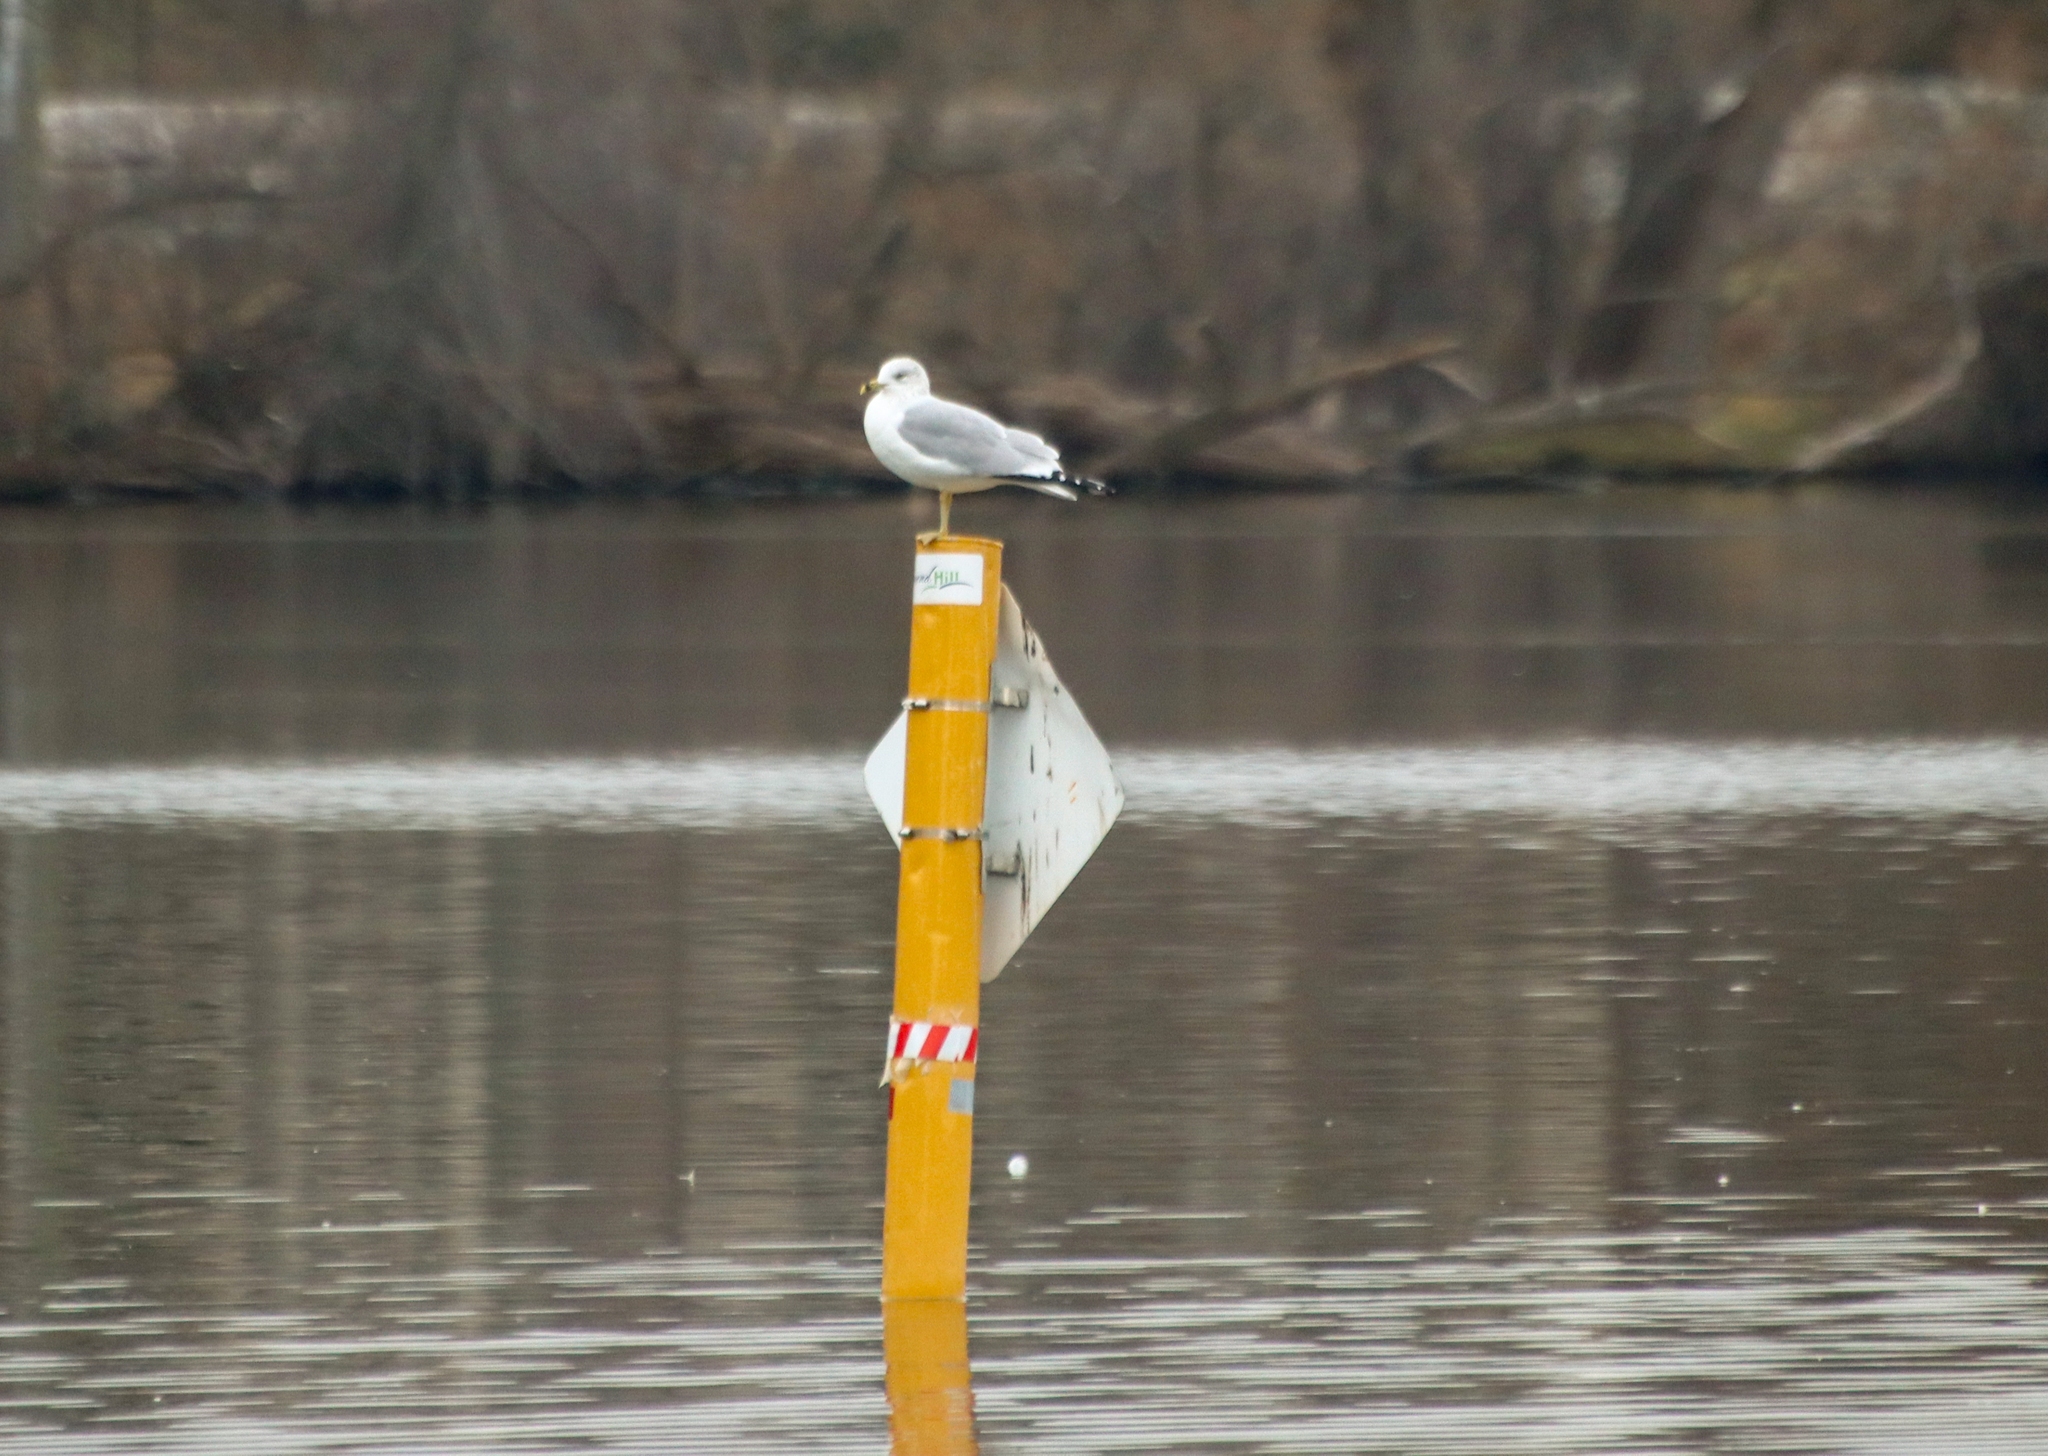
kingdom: Animalia
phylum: Chordata
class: Aves
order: Charadriiformes
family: Laridae
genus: Larus
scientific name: Larus delawarensis
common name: Ring-billed gull
